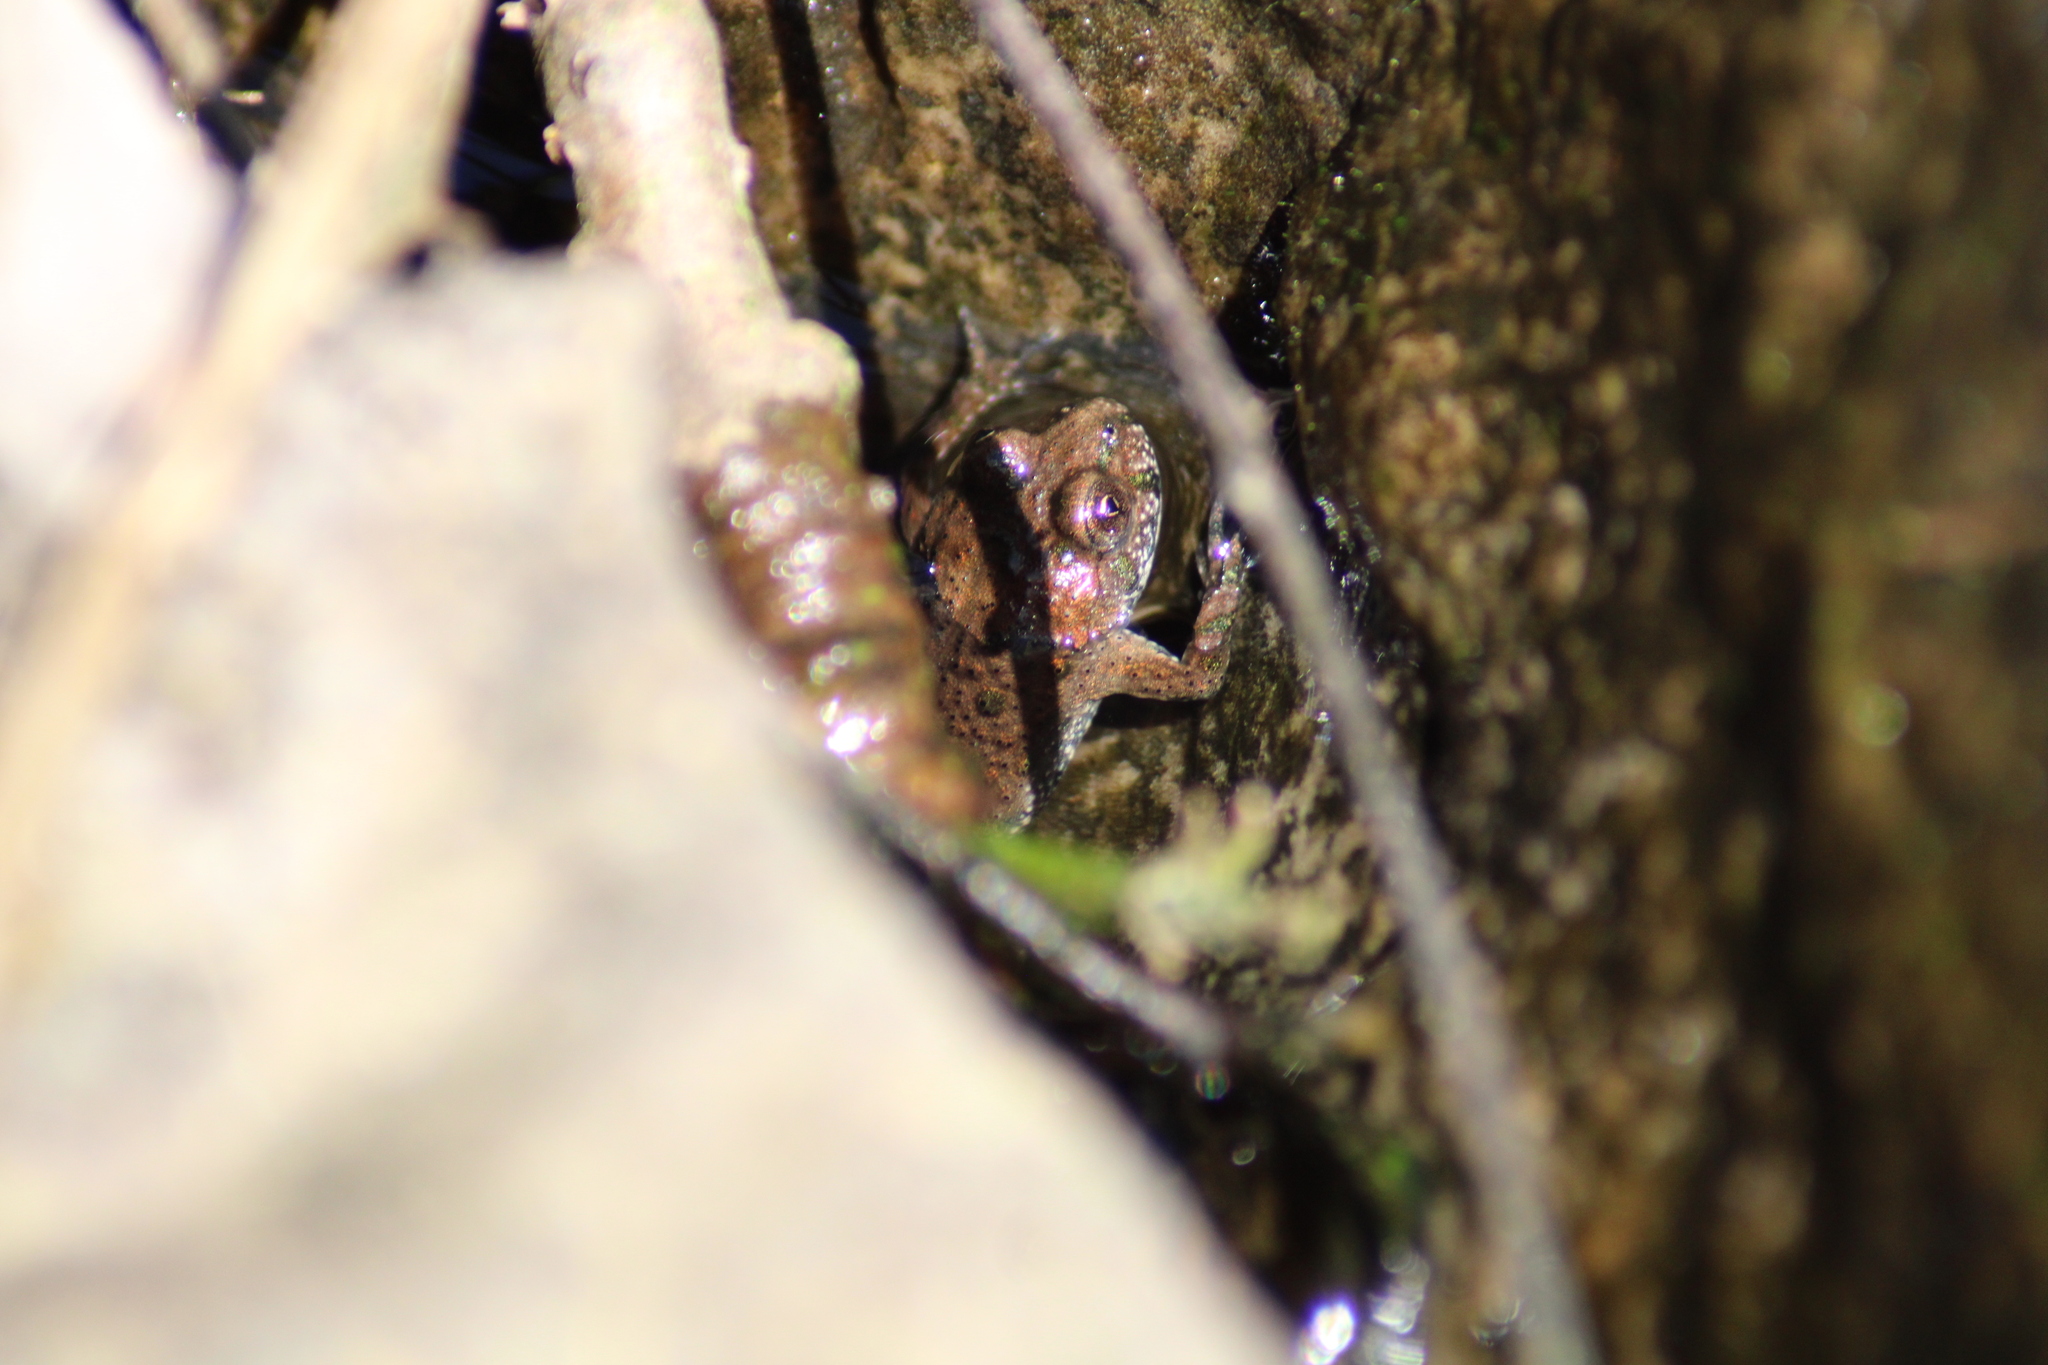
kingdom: Animalia
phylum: Chordata
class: Amphibia
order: Anura
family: Bombinatoridae
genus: Bombina
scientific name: Bombina bombina
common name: Fire-bellied toad
